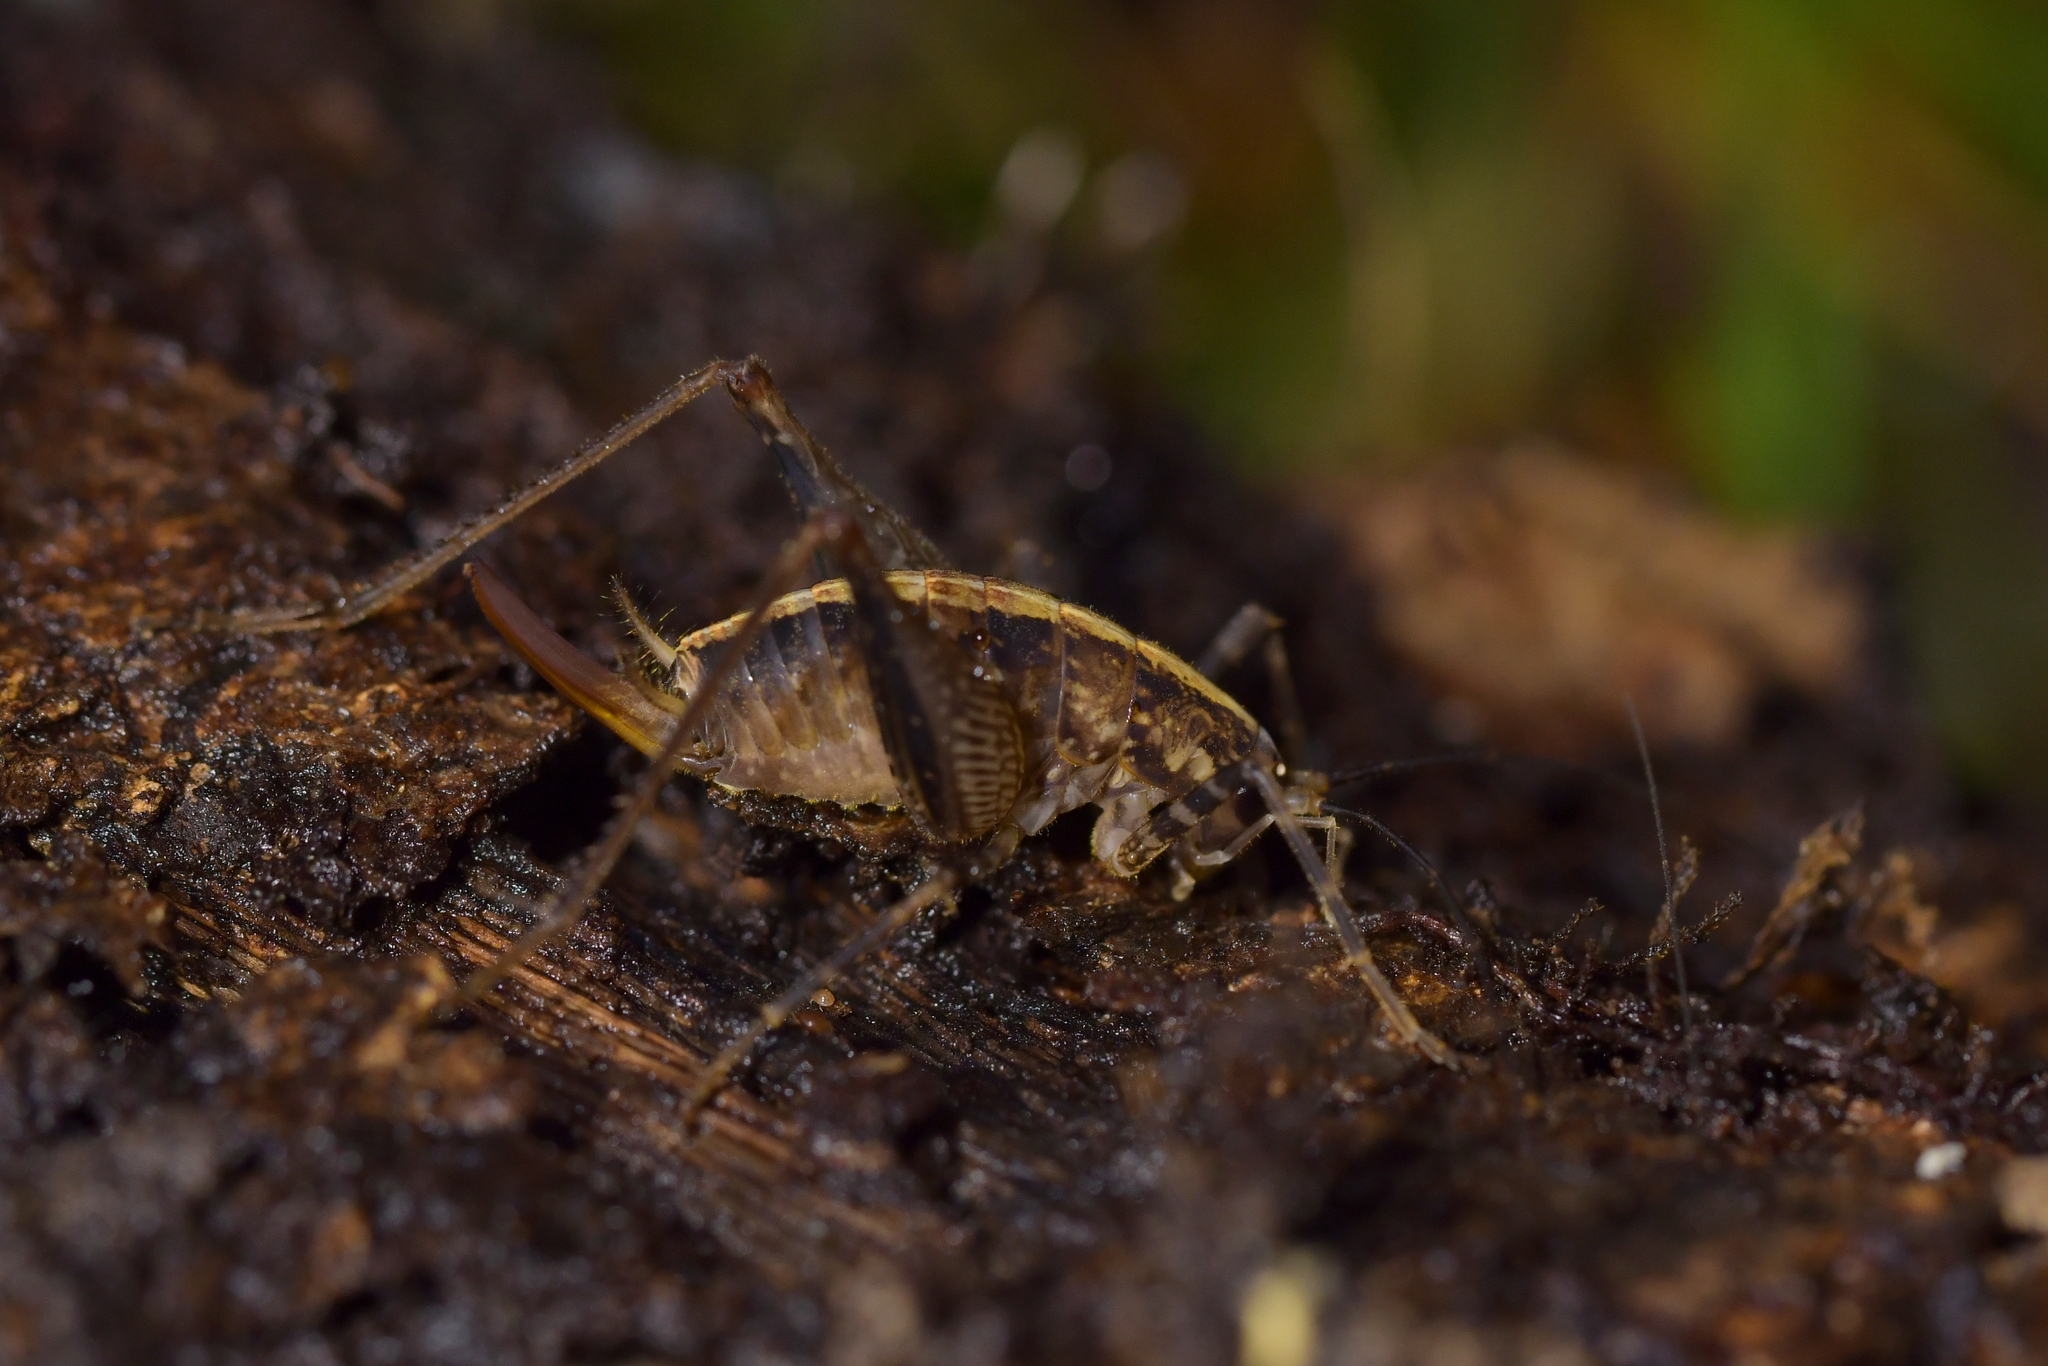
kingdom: Animalia
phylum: Arthropoda
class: Insecta
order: Orthoptera
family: Rhaphidophoridae
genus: Pleioplectron
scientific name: Pleioplectron hudsoni
